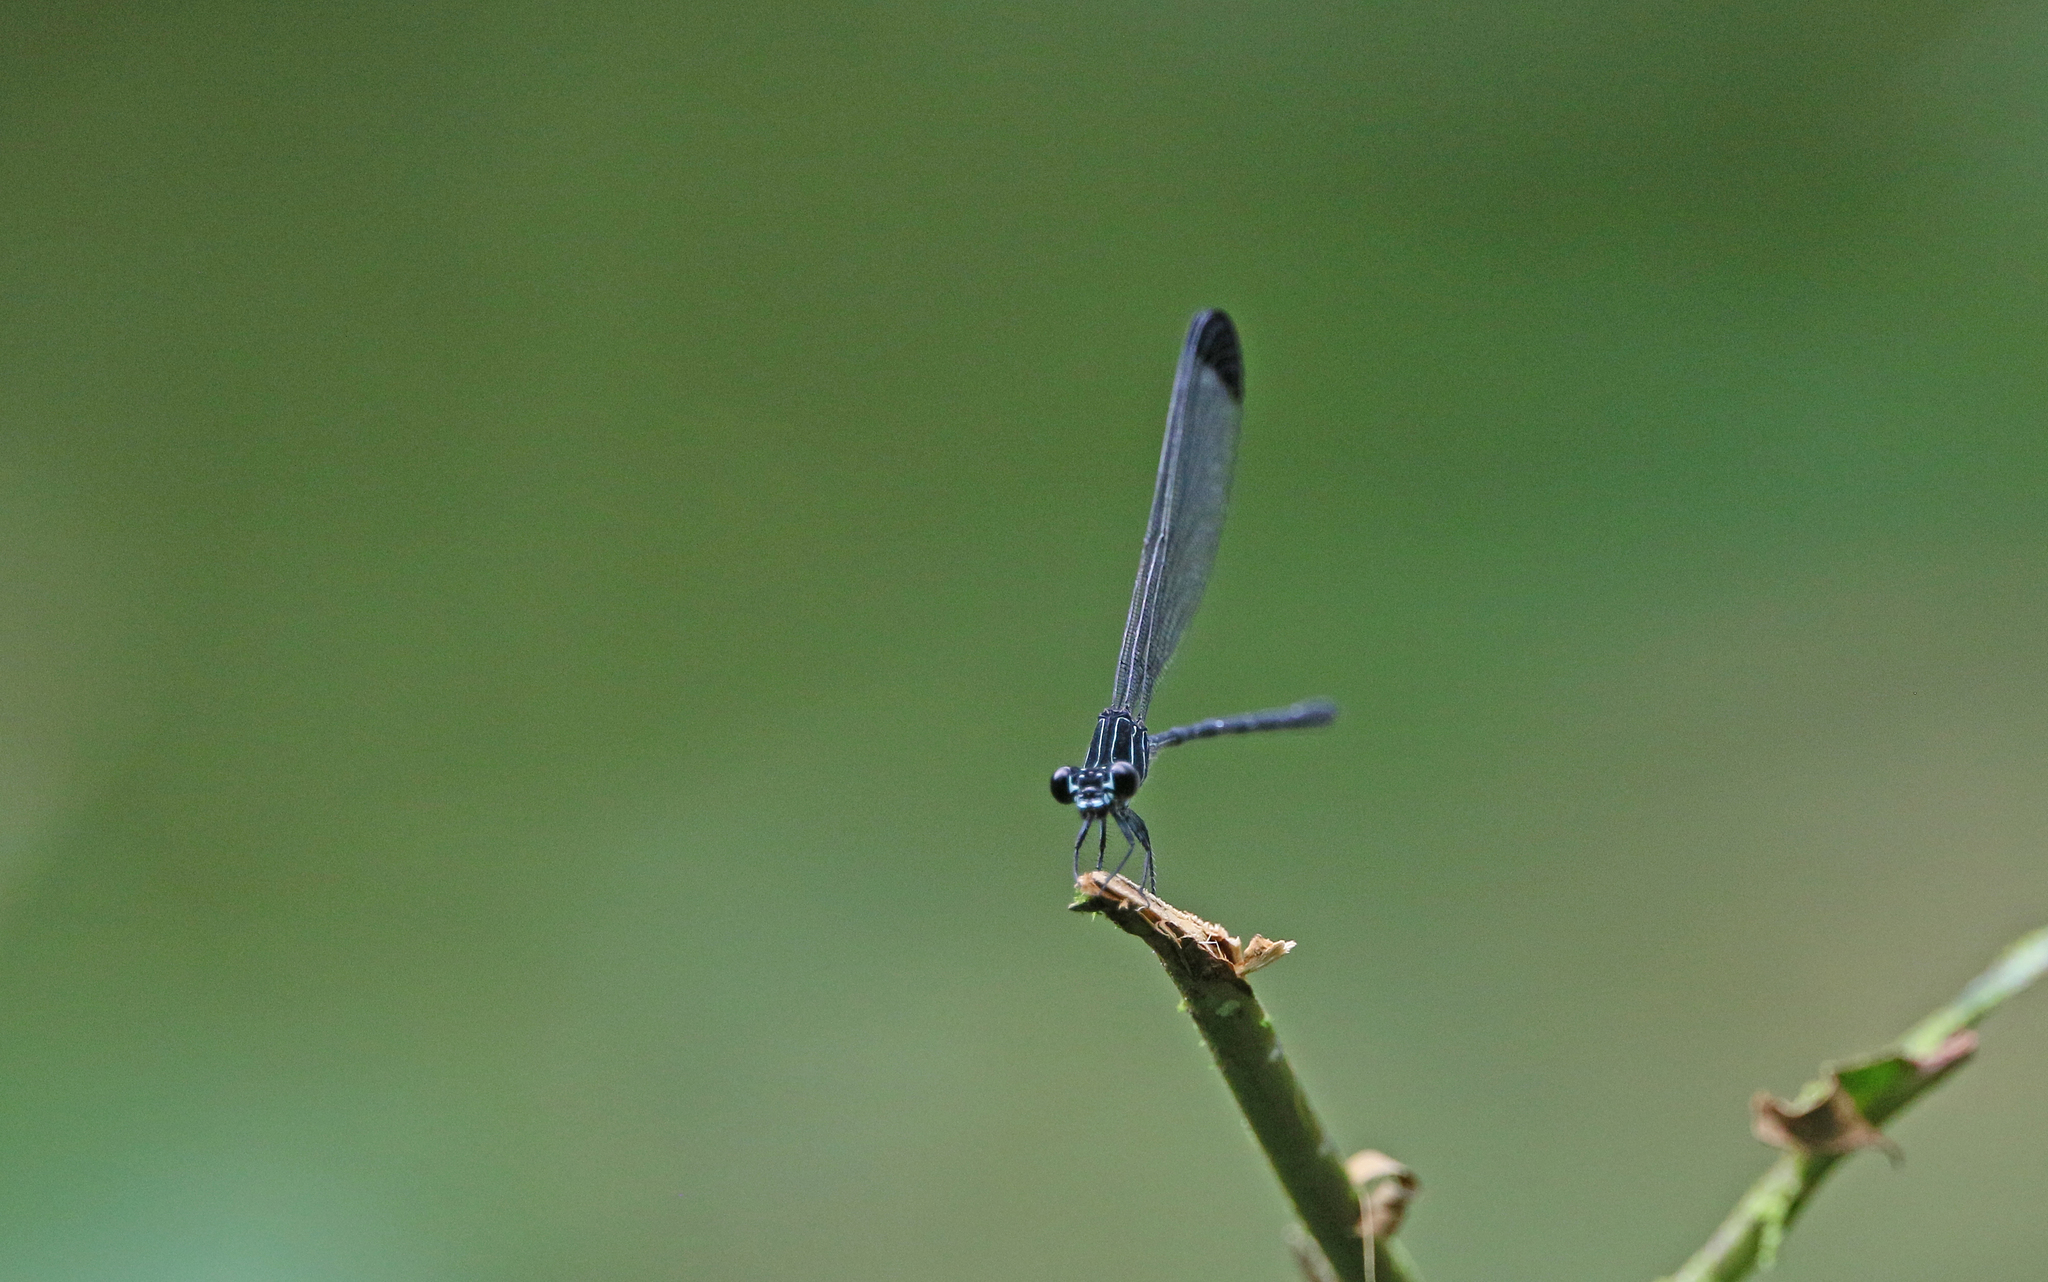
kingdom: Animalia
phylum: Arthropoda
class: Insecta
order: Odonata
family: Polythoridae
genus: Polythore
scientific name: Polythore terminata
